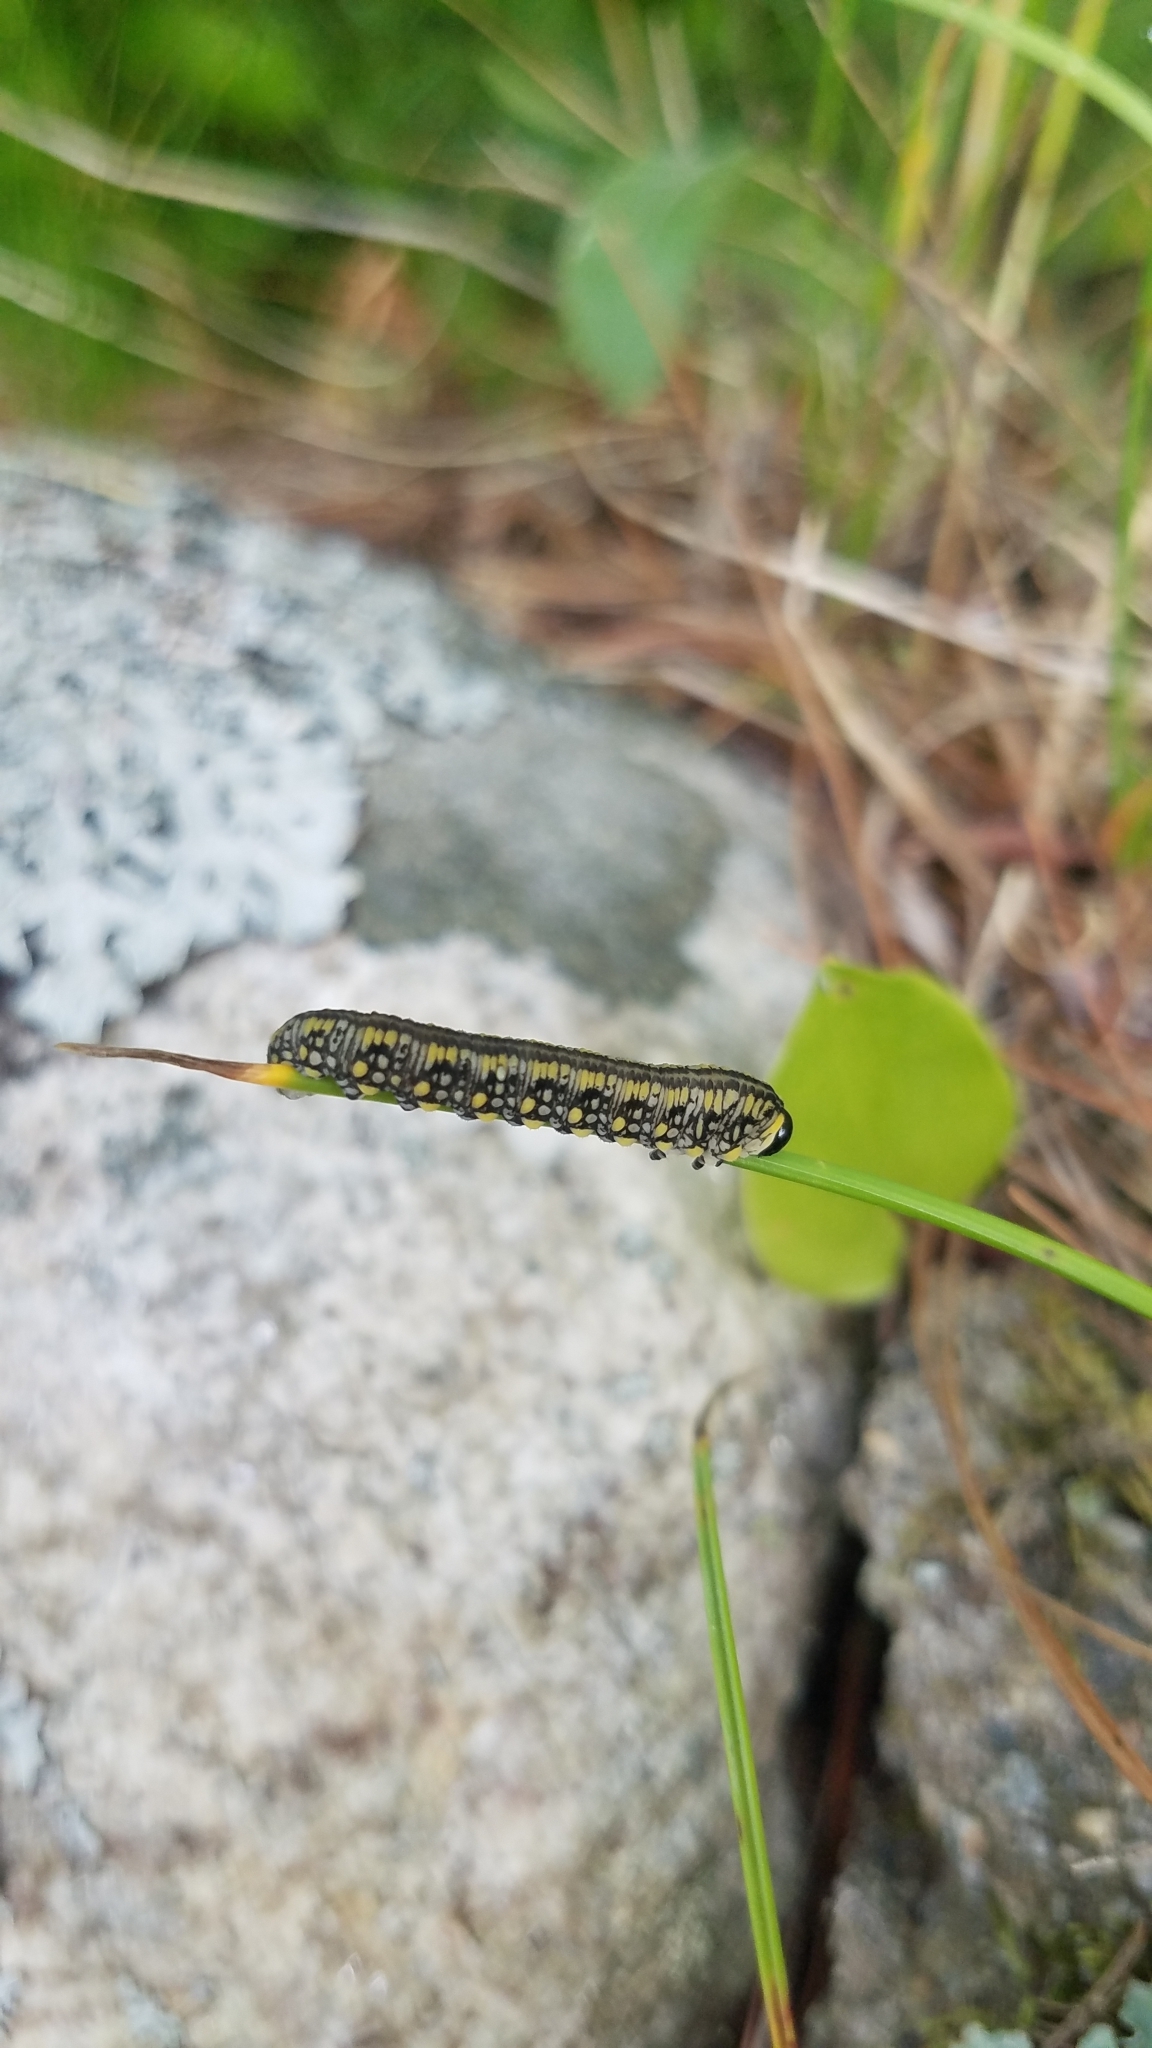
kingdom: Animalia
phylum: Arthropoda
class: Insecta
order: Hymenoptera
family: Diprionidae
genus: Diprion
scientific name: Diprion similis
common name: Pine sawfly
